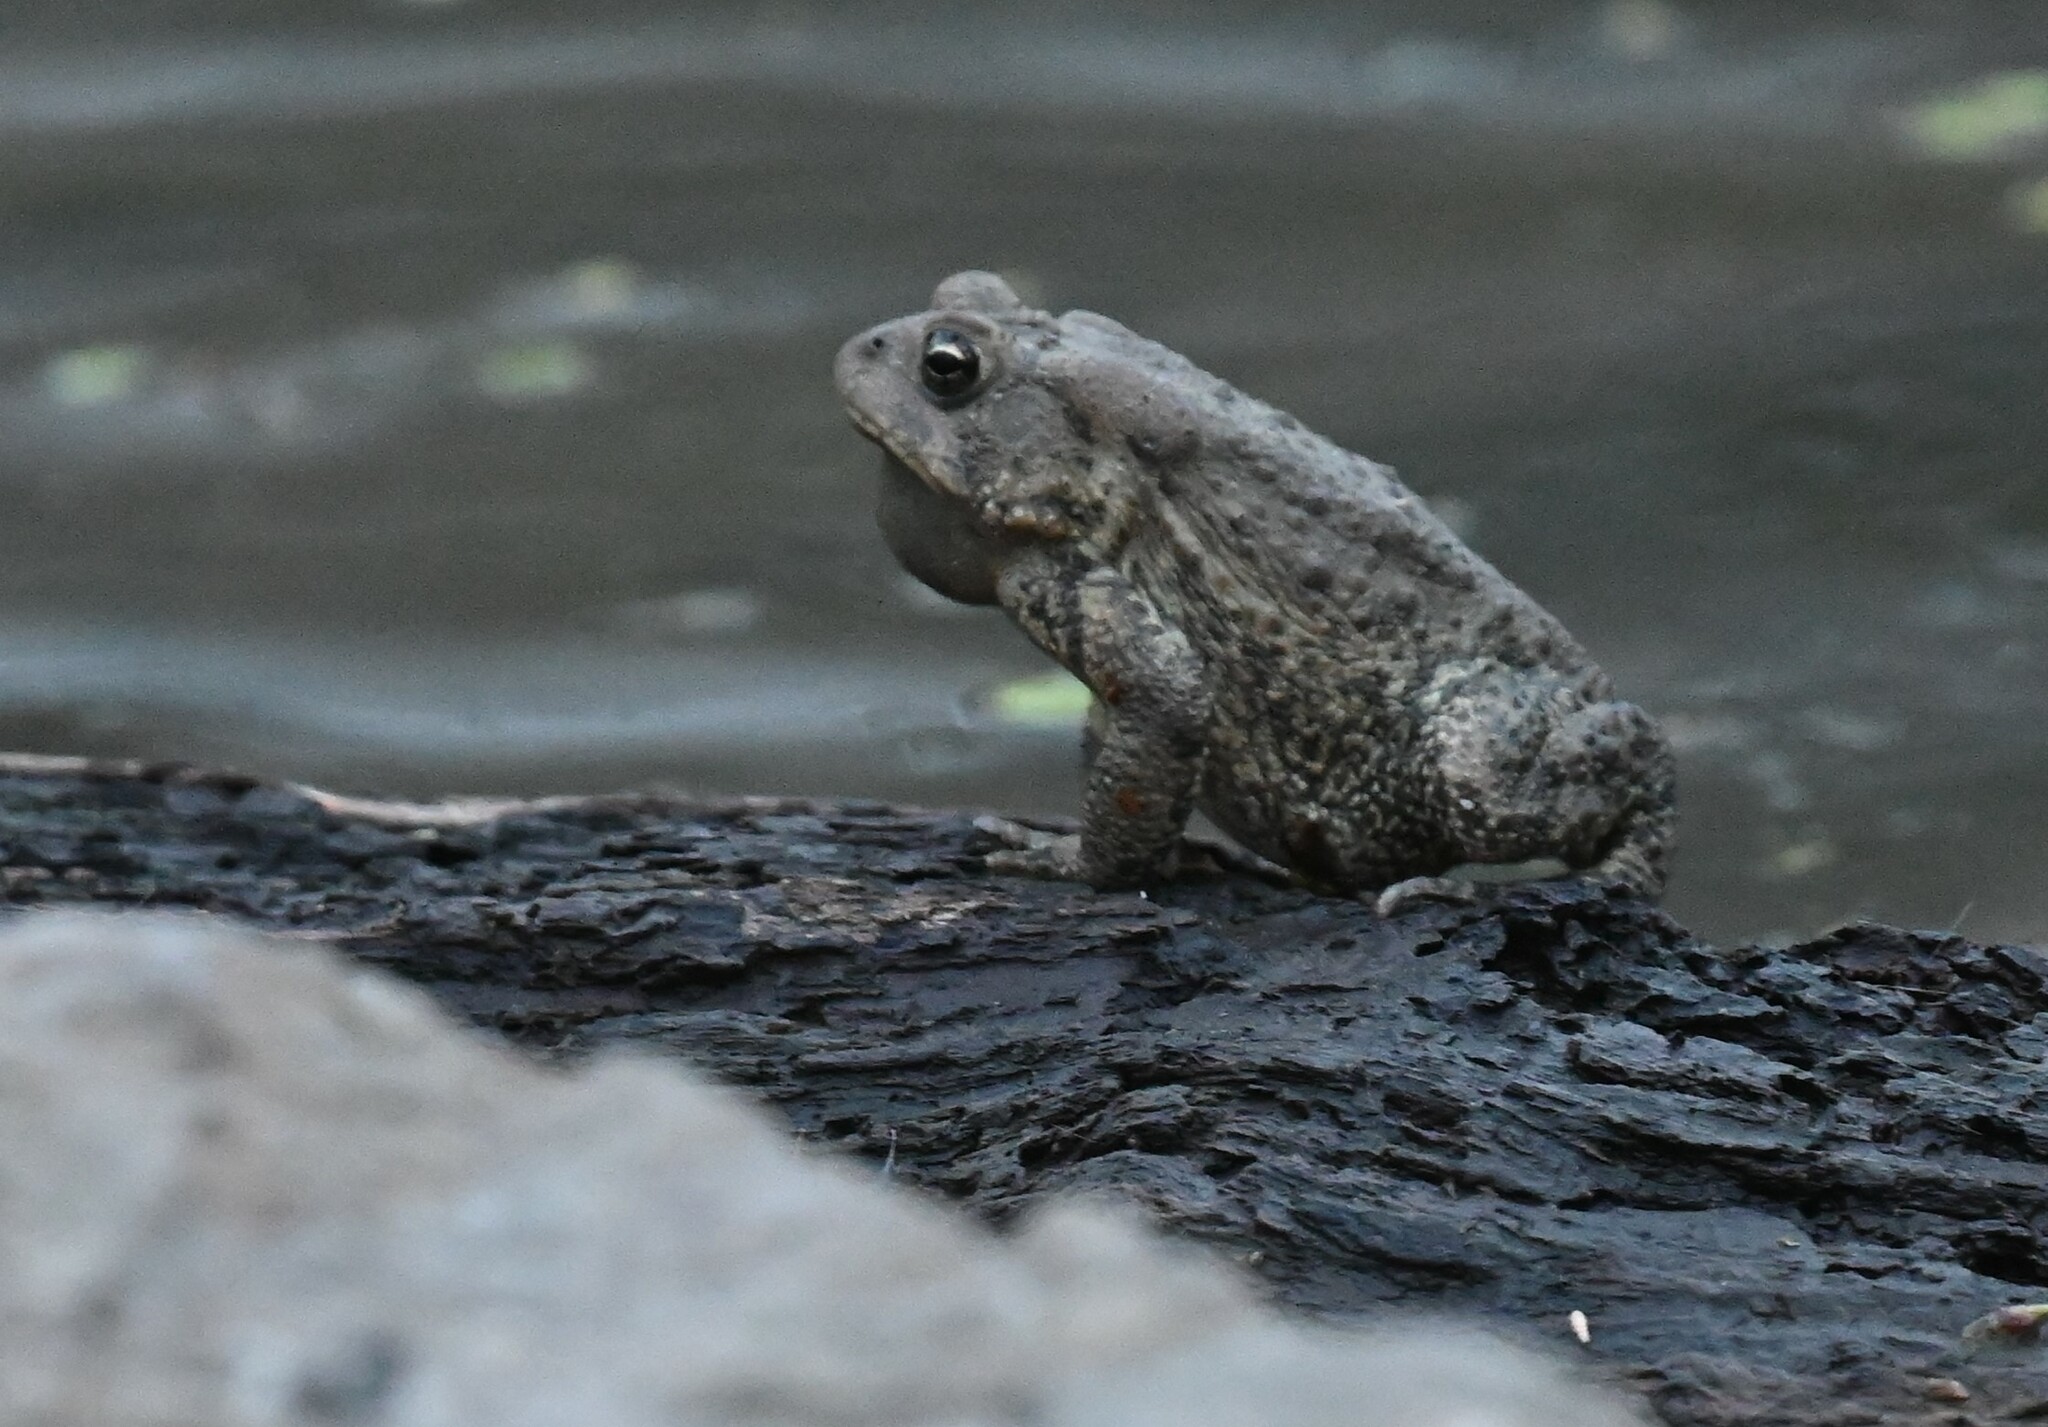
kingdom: Animalia
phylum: Chordata
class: Amphibia
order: Anura
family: Bufonidae
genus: Anaxyrus
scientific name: Anaxyrus americanus
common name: American toad
